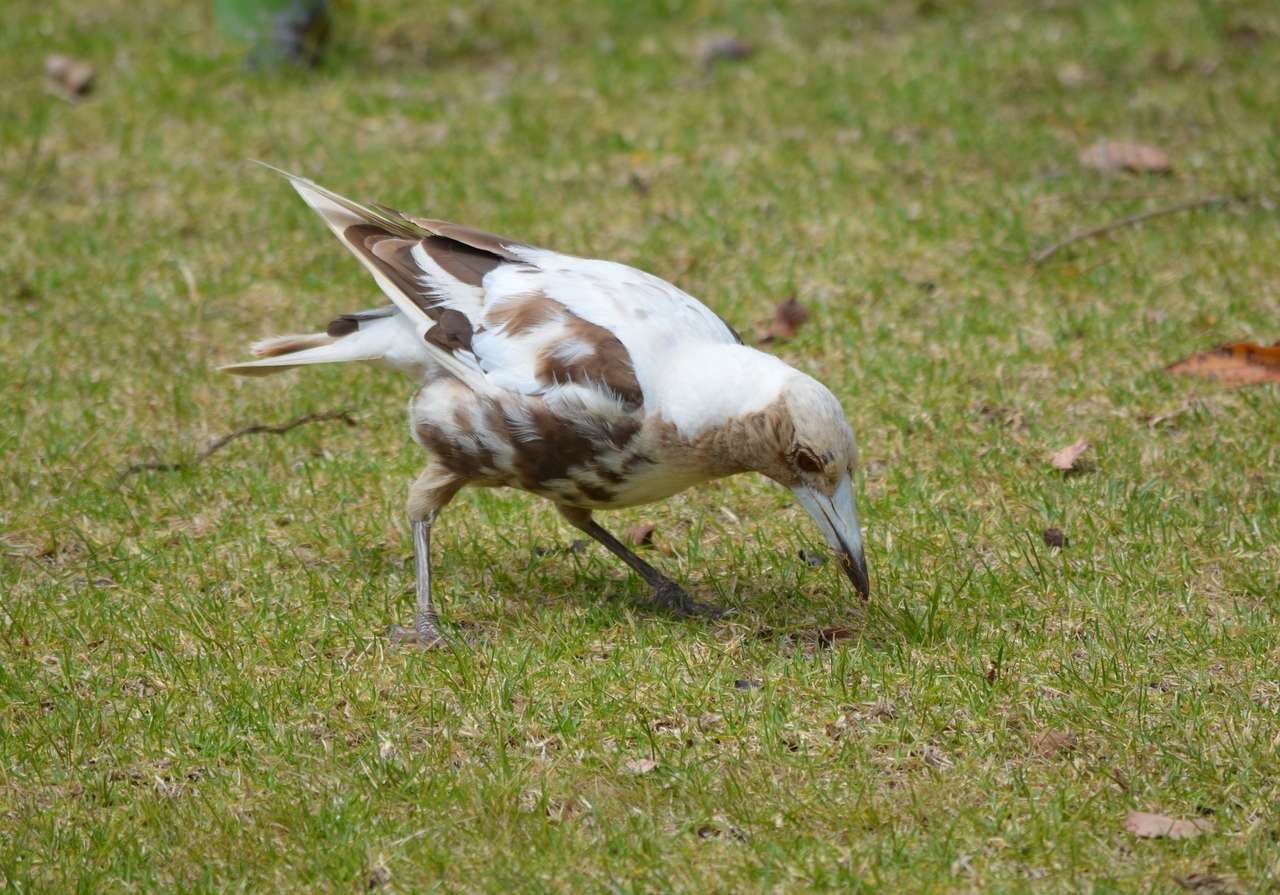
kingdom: Animalia
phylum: Chordata
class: Aves
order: Passeriformes
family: Cracticidae
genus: Gymnorhina
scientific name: Gymnorhina tibicen
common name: Australian magpie
